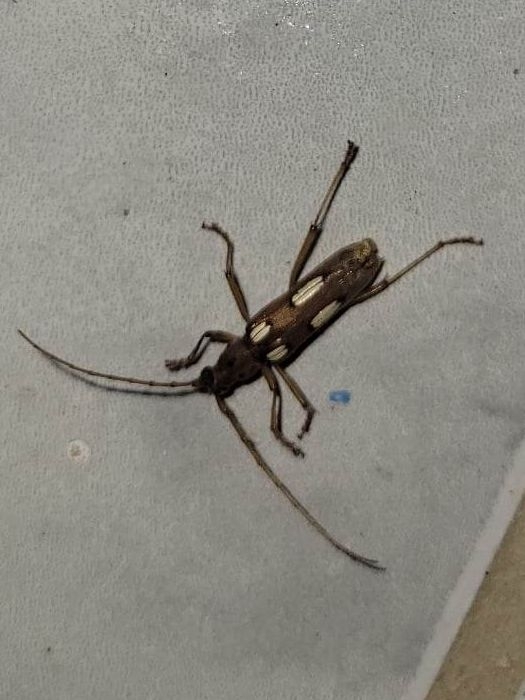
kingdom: Animalia
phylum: Arthropoda
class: Insecta
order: Coleoptera
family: Cerambycidae
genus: Eburia
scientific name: Eburia quadrimaculata
